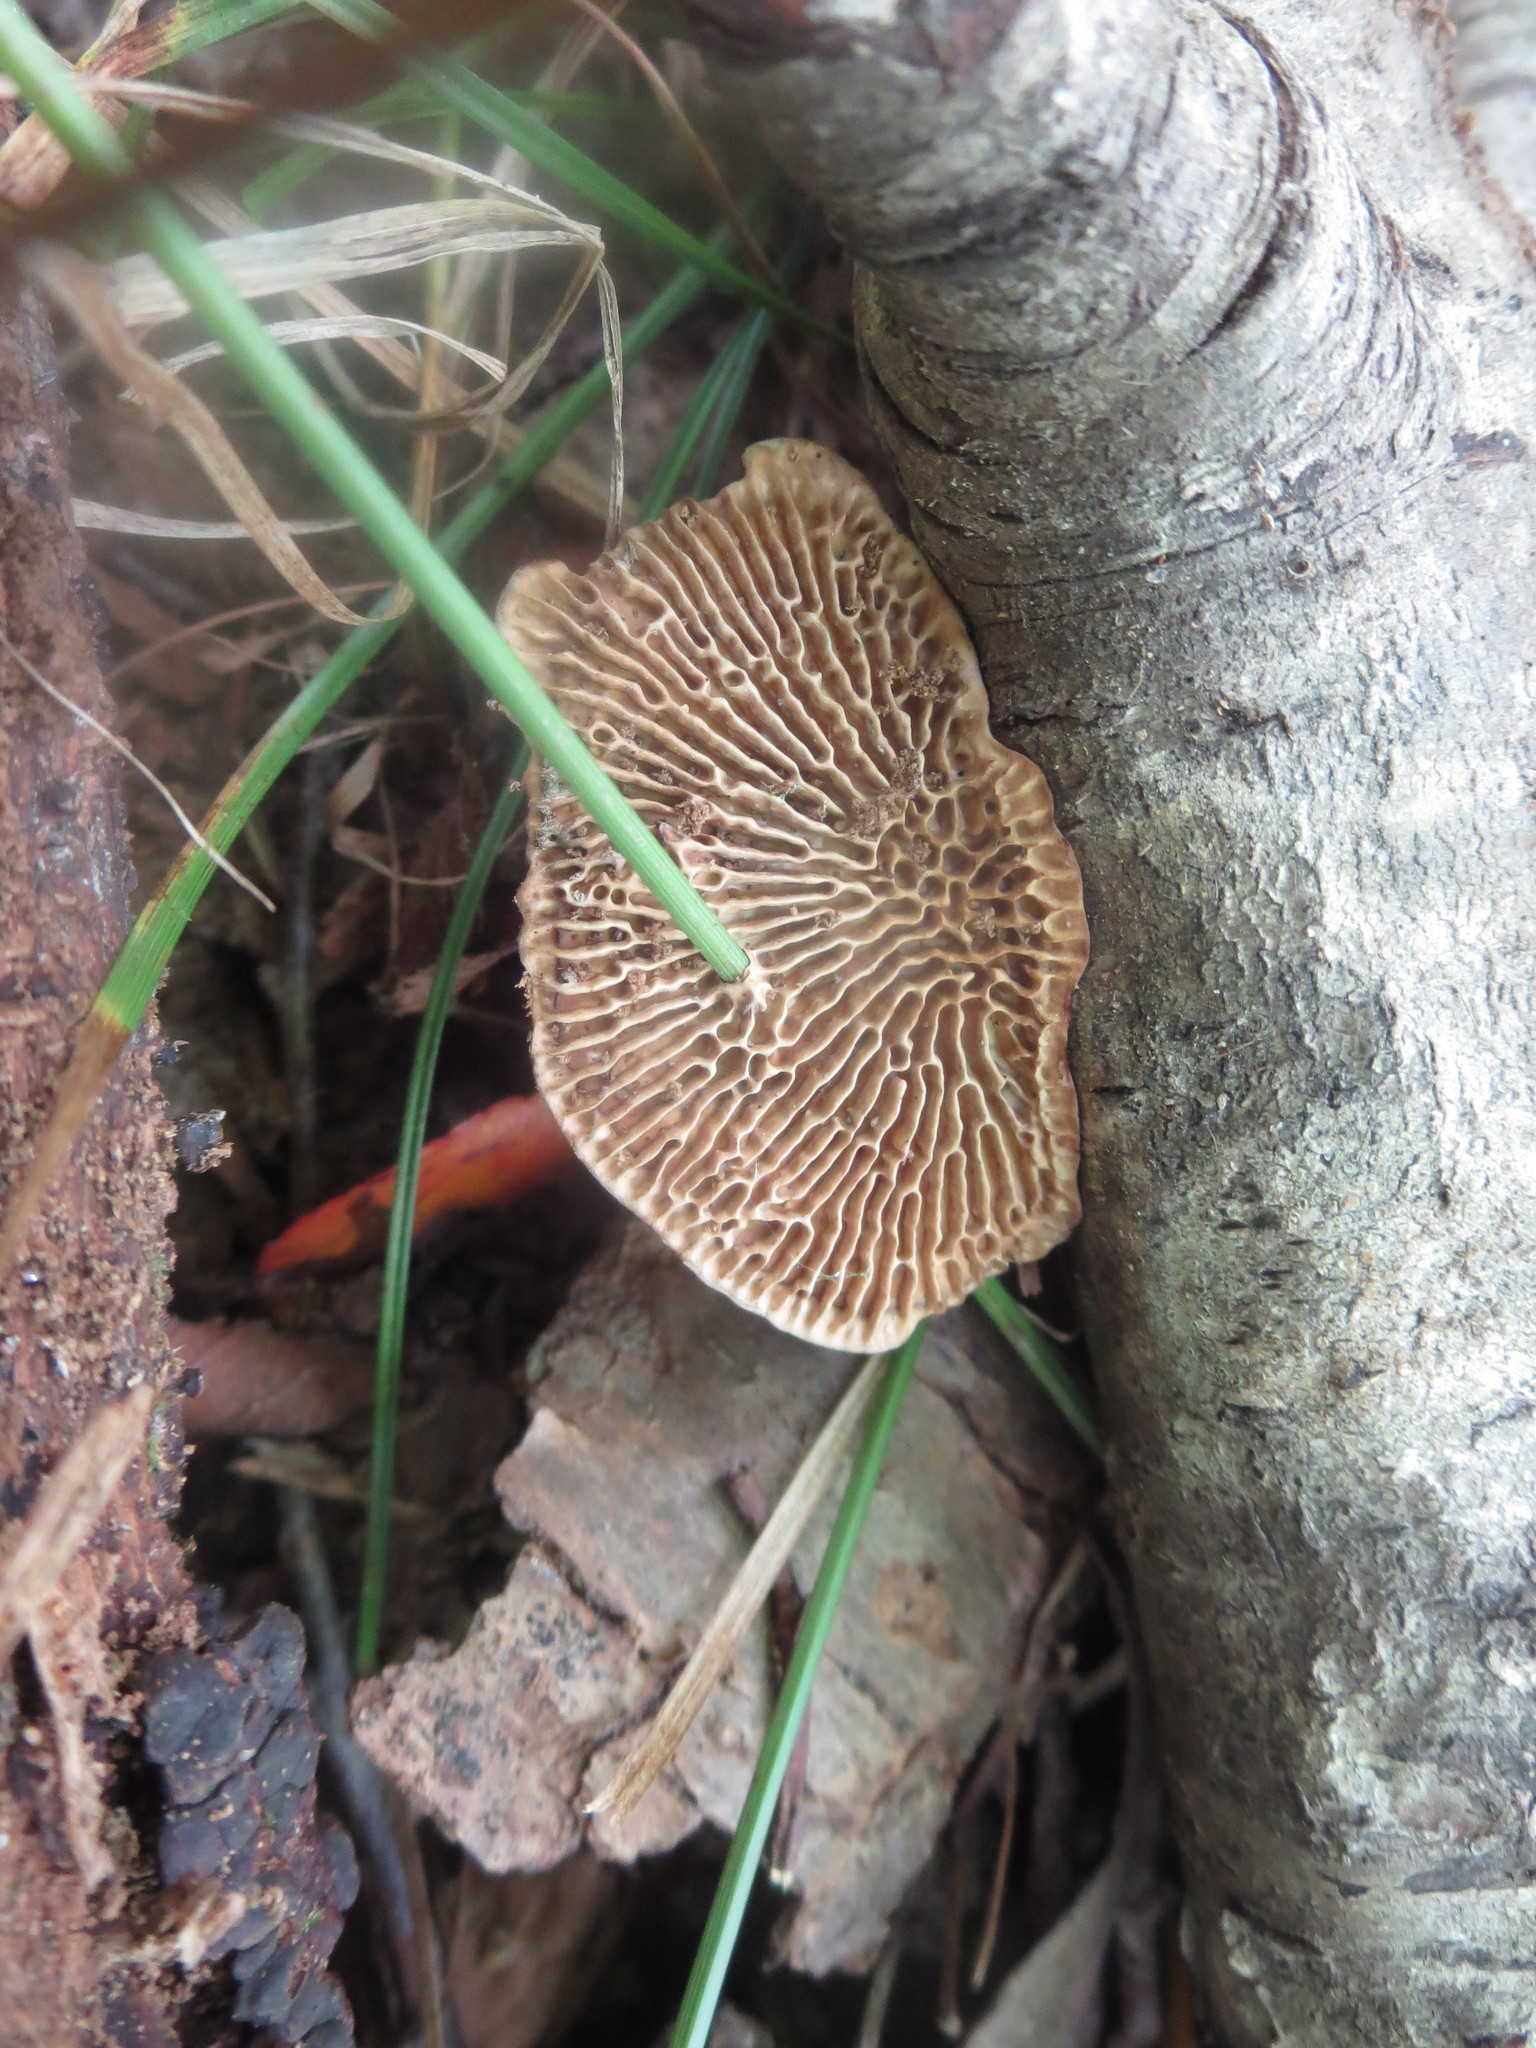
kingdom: Fungi
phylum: Basidiomycota
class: Agaricomycetes
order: Polyporales
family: Polyporaceae
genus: Daedaleopsis
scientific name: Daedaleopsis confragosa
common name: Blushing bracket
